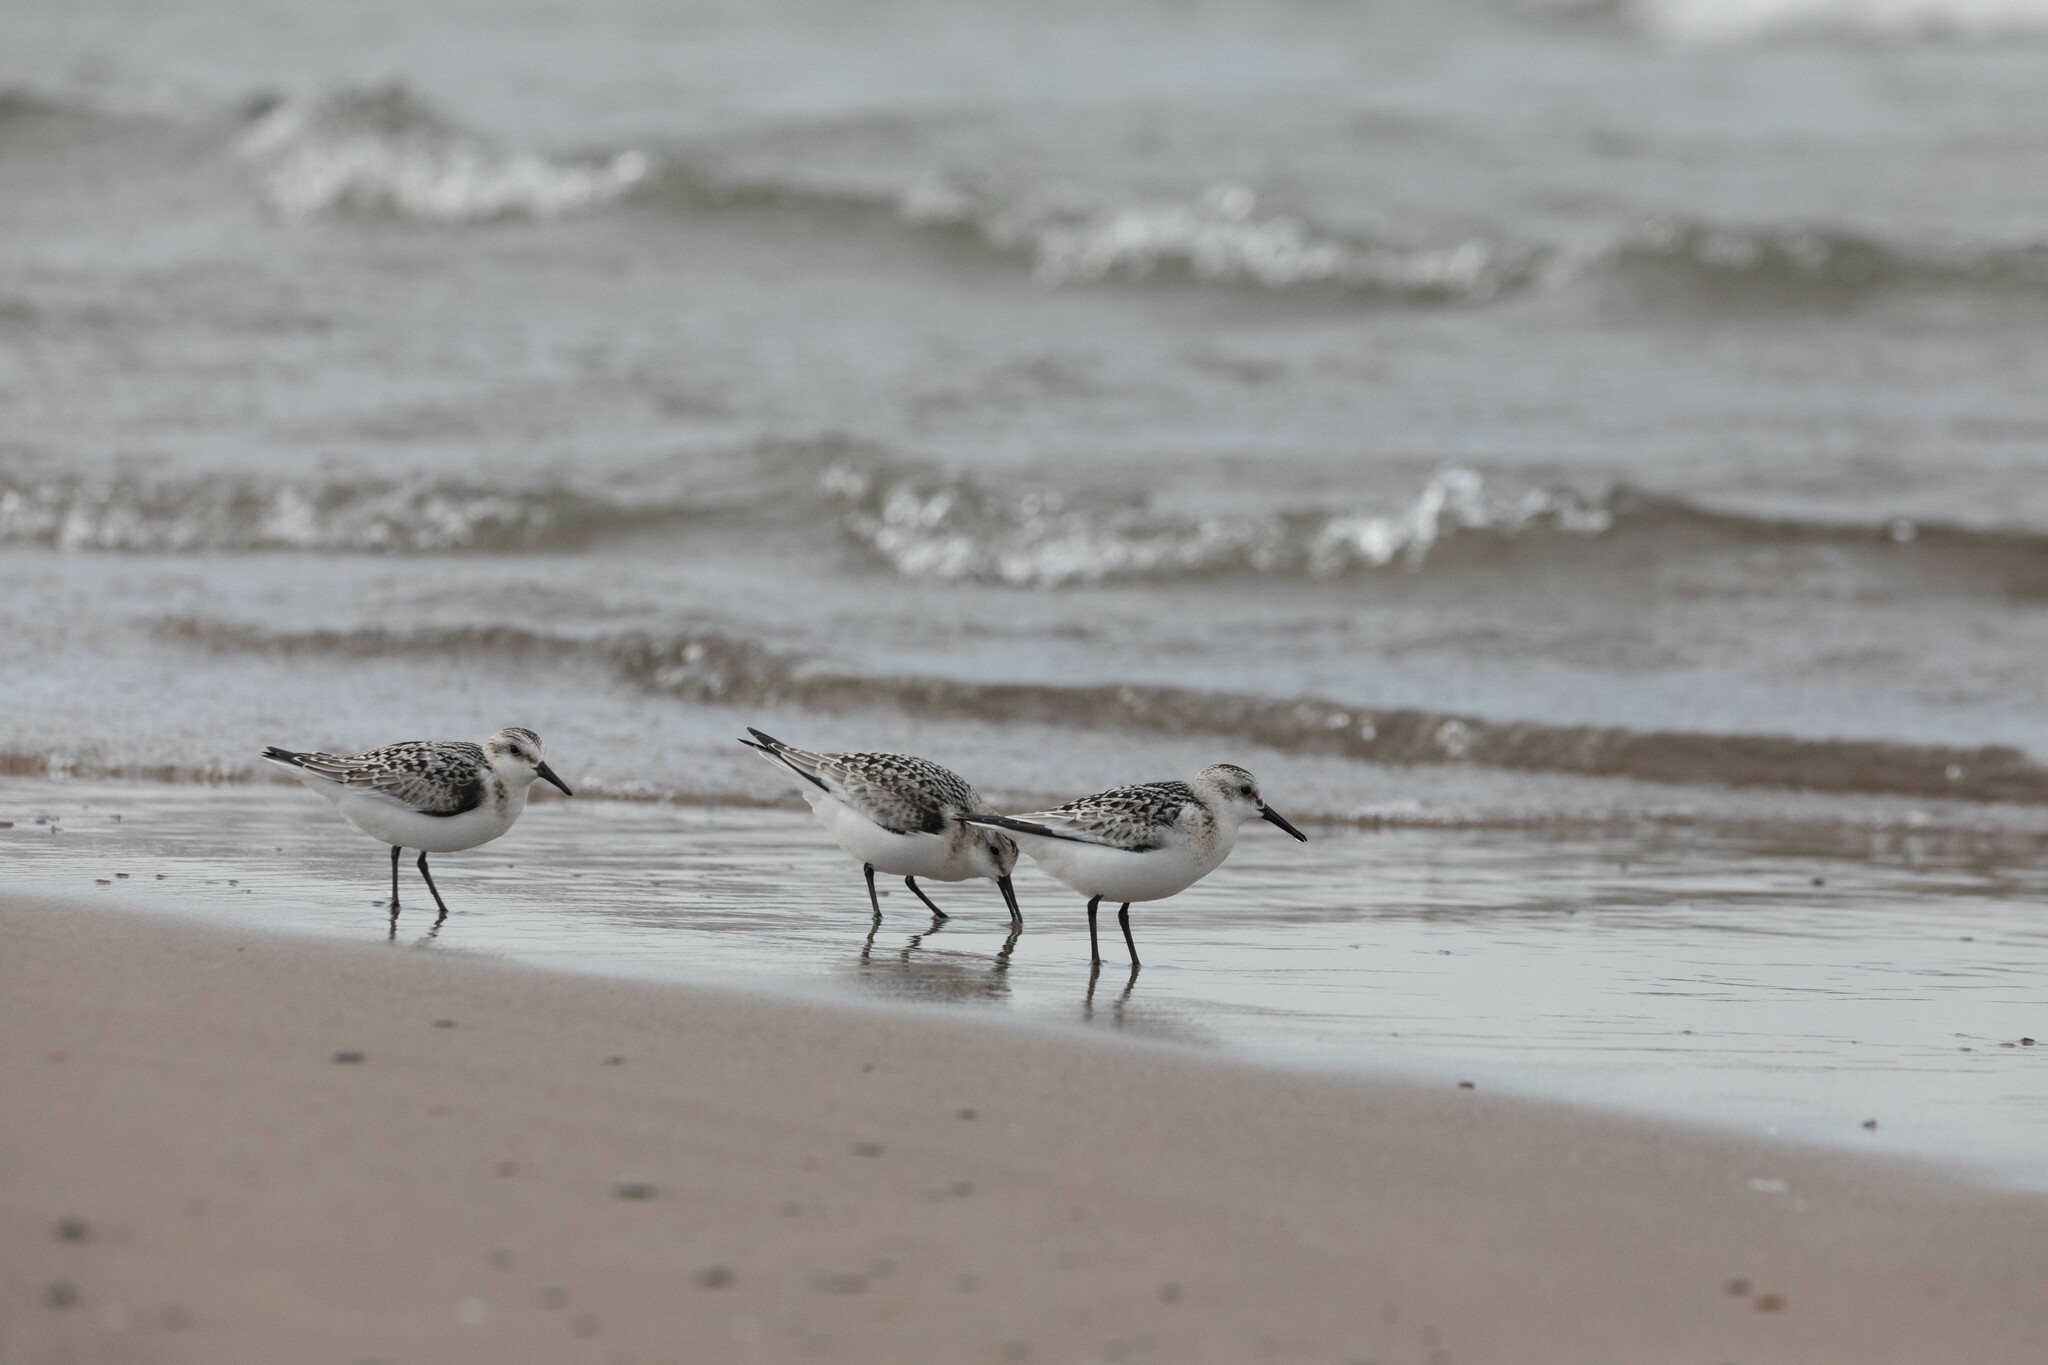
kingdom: Animalia
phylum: Chordata
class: Aves
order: Charadriiformes
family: Scolopacidae
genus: Calidris
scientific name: Calidris alba
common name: Sanderling
